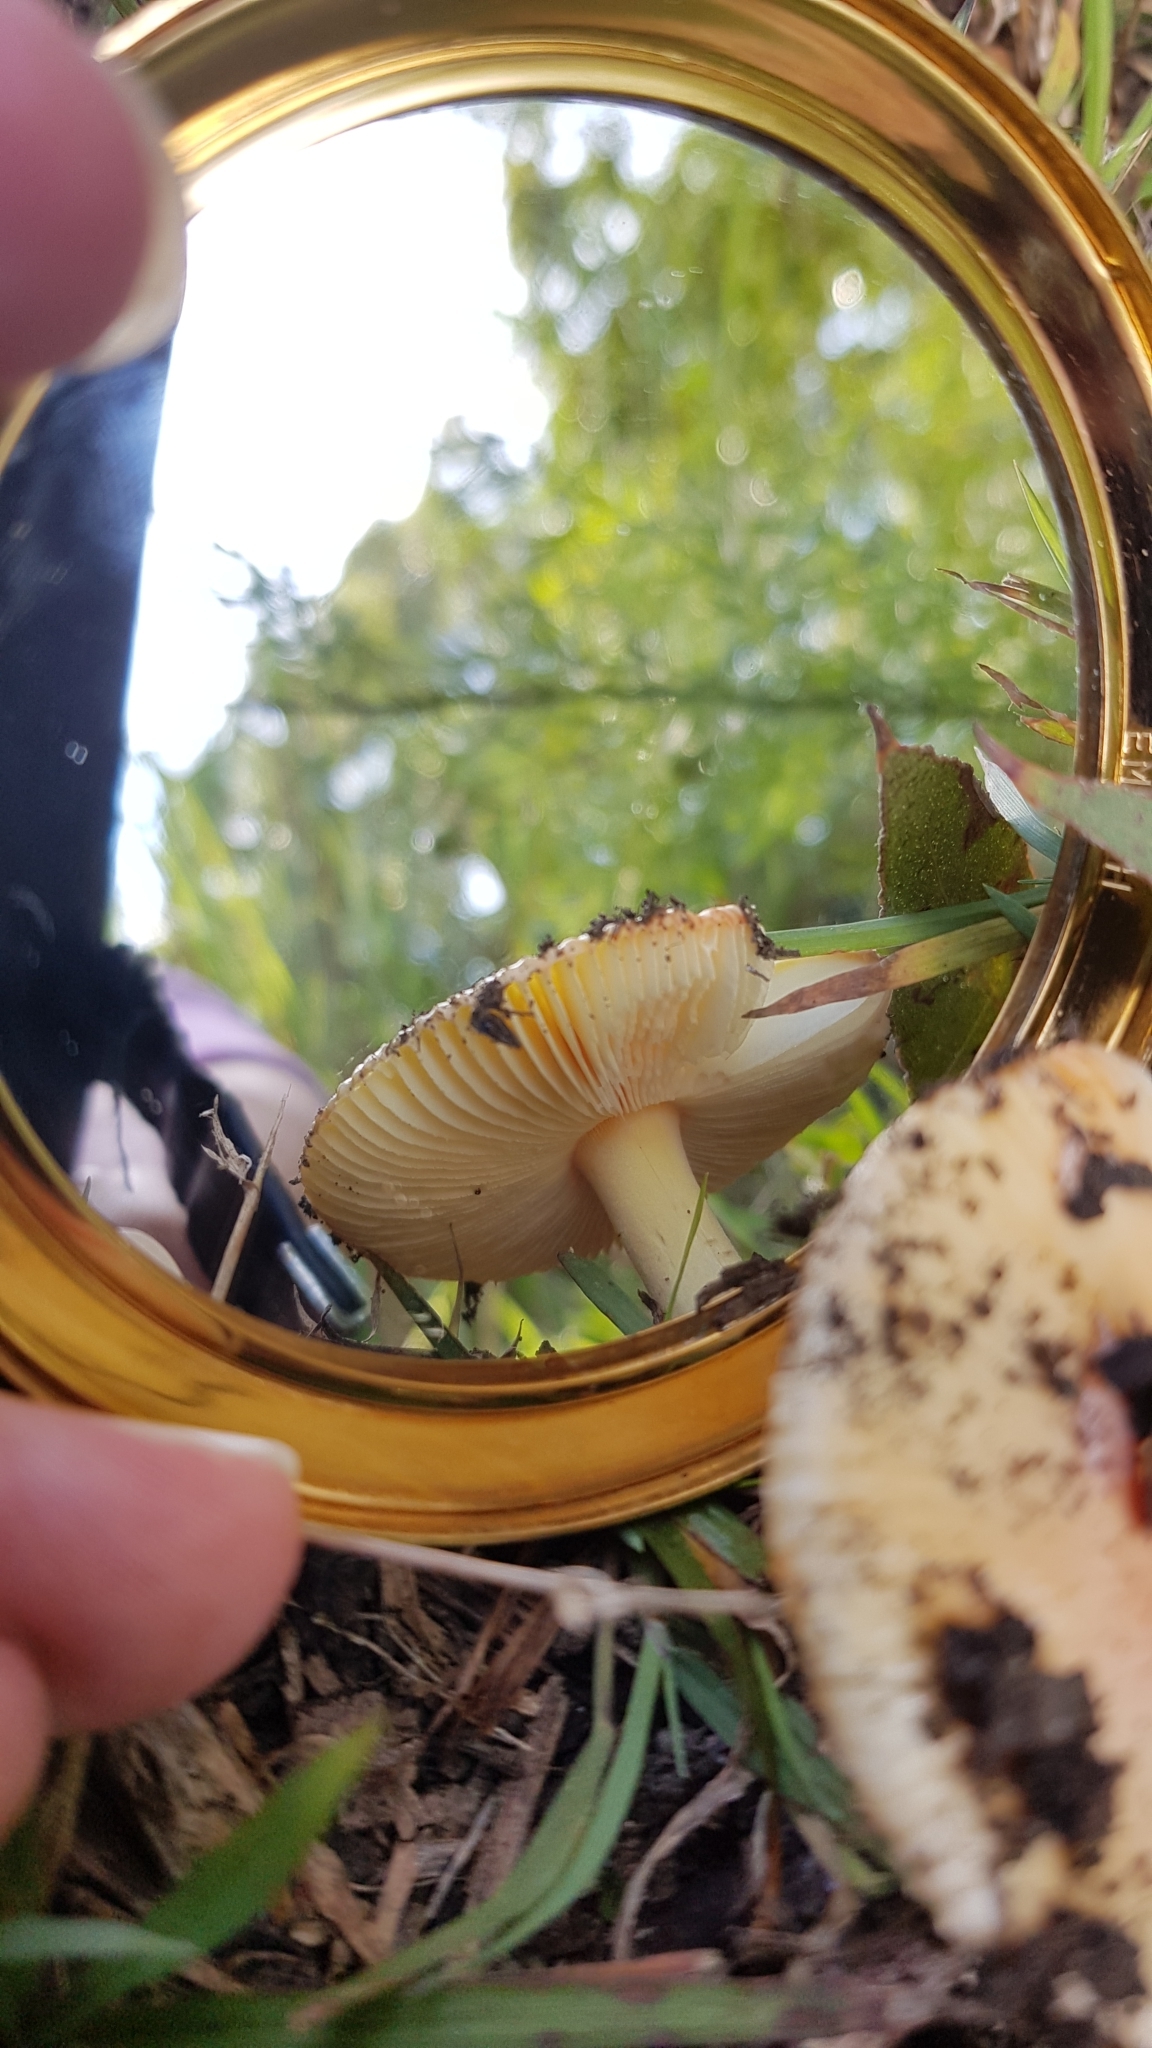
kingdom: Fungi
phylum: Basidiomycota
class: Agaricomycetes
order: Agaricales
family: Amanitaceae
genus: Amanita
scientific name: Amanita xanthocephala
